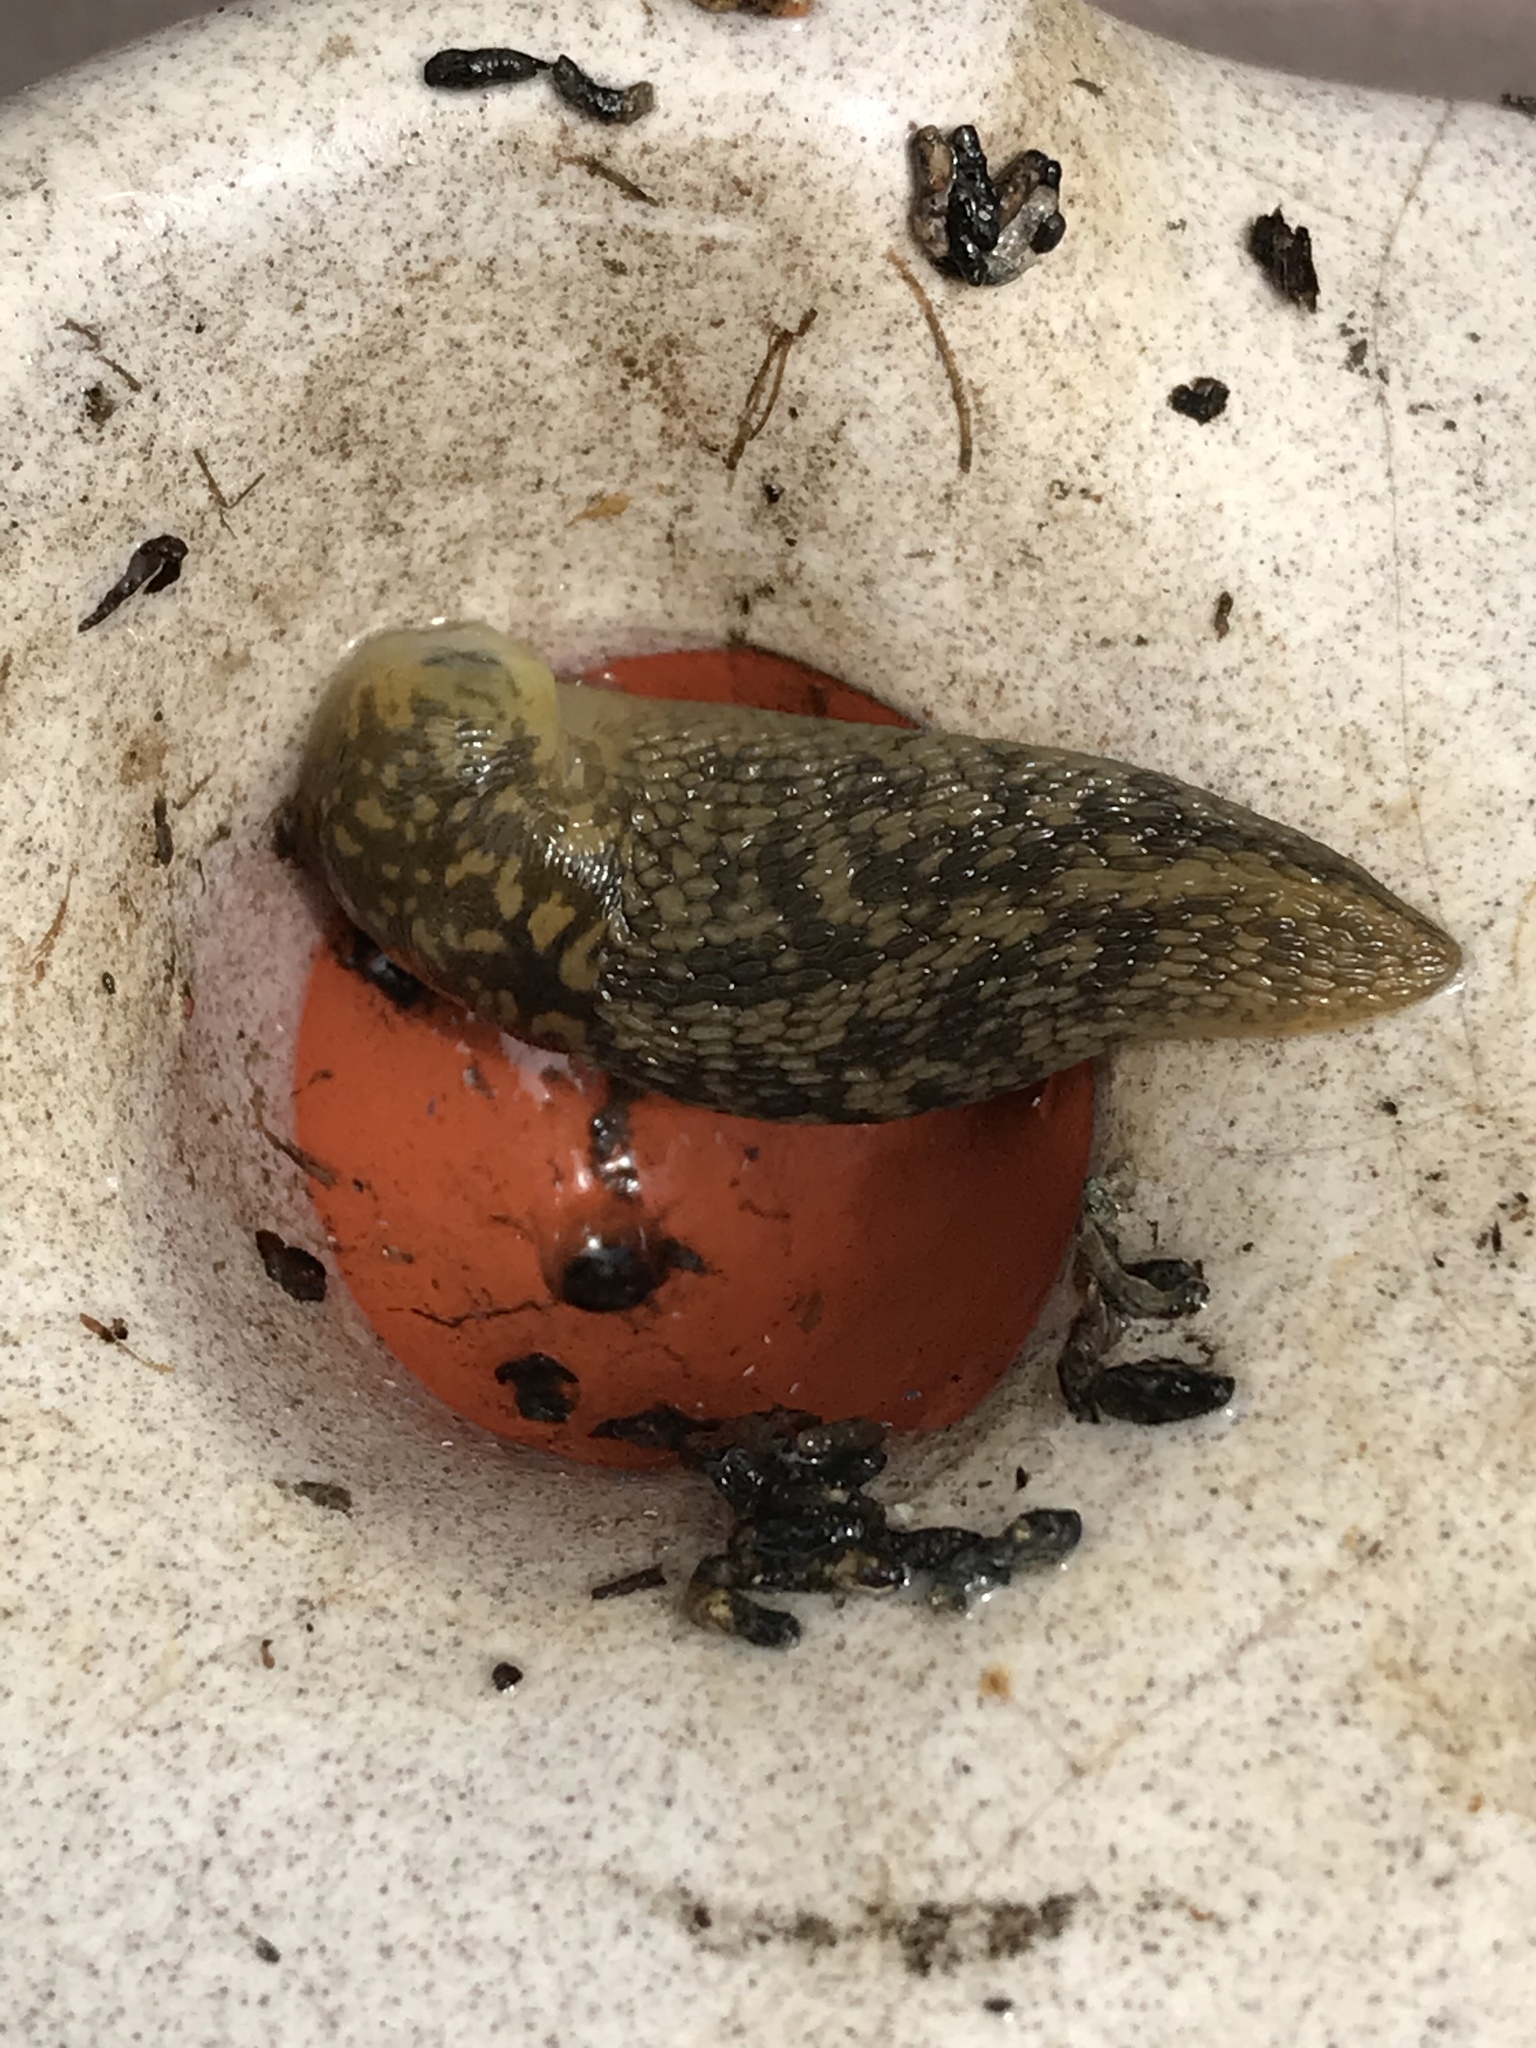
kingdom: Animalia
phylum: Mollusca
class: Gastropoda
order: Stylommatophora
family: Limacidae
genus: Limacus
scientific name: Limacus flavus
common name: Yellow gardenslug
